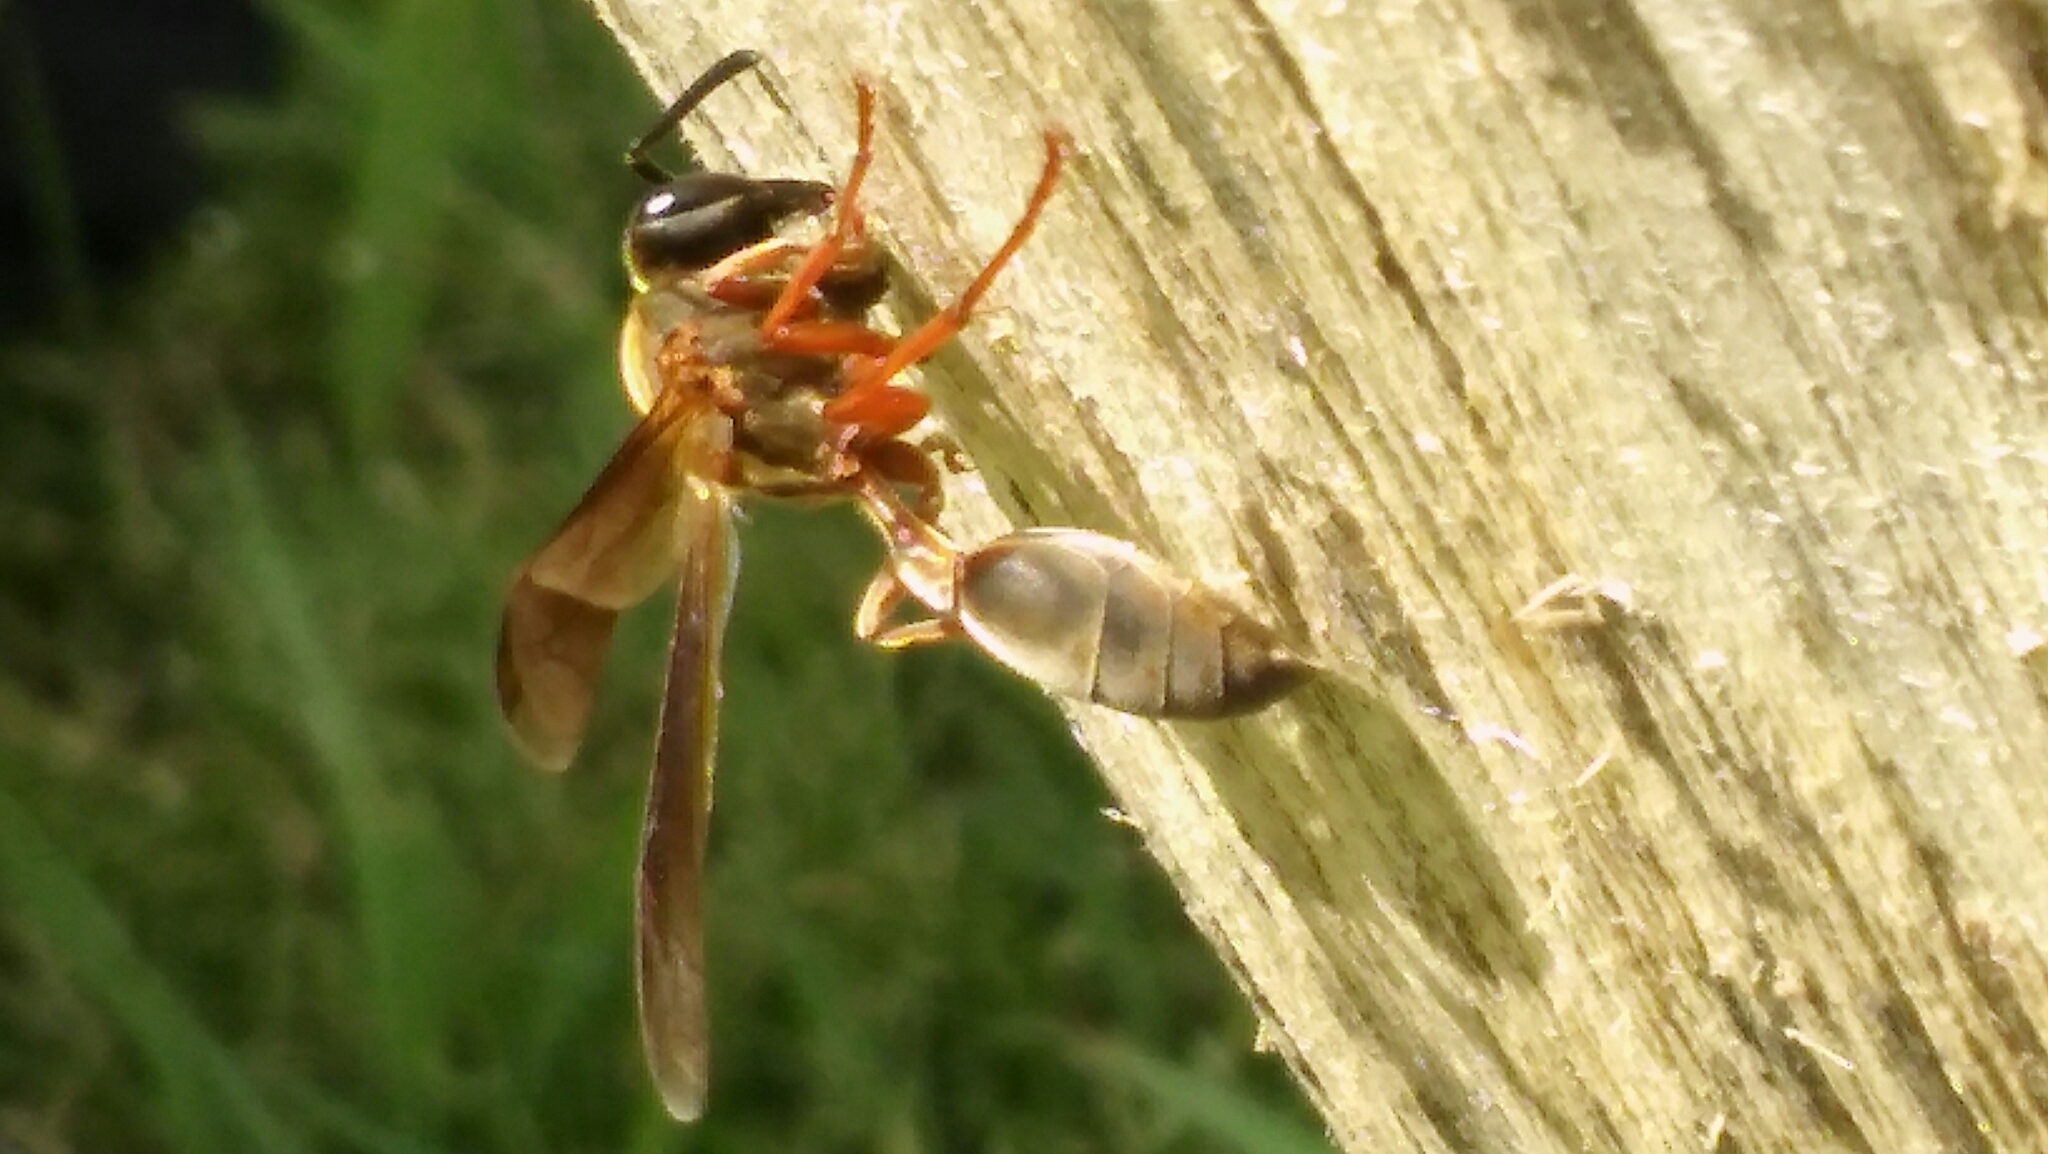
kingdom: Animalia
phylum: Arthropoda
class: Insecta
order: Hymenoptera
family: Eumenidae
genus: Polybia
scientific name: Polybia sericea
